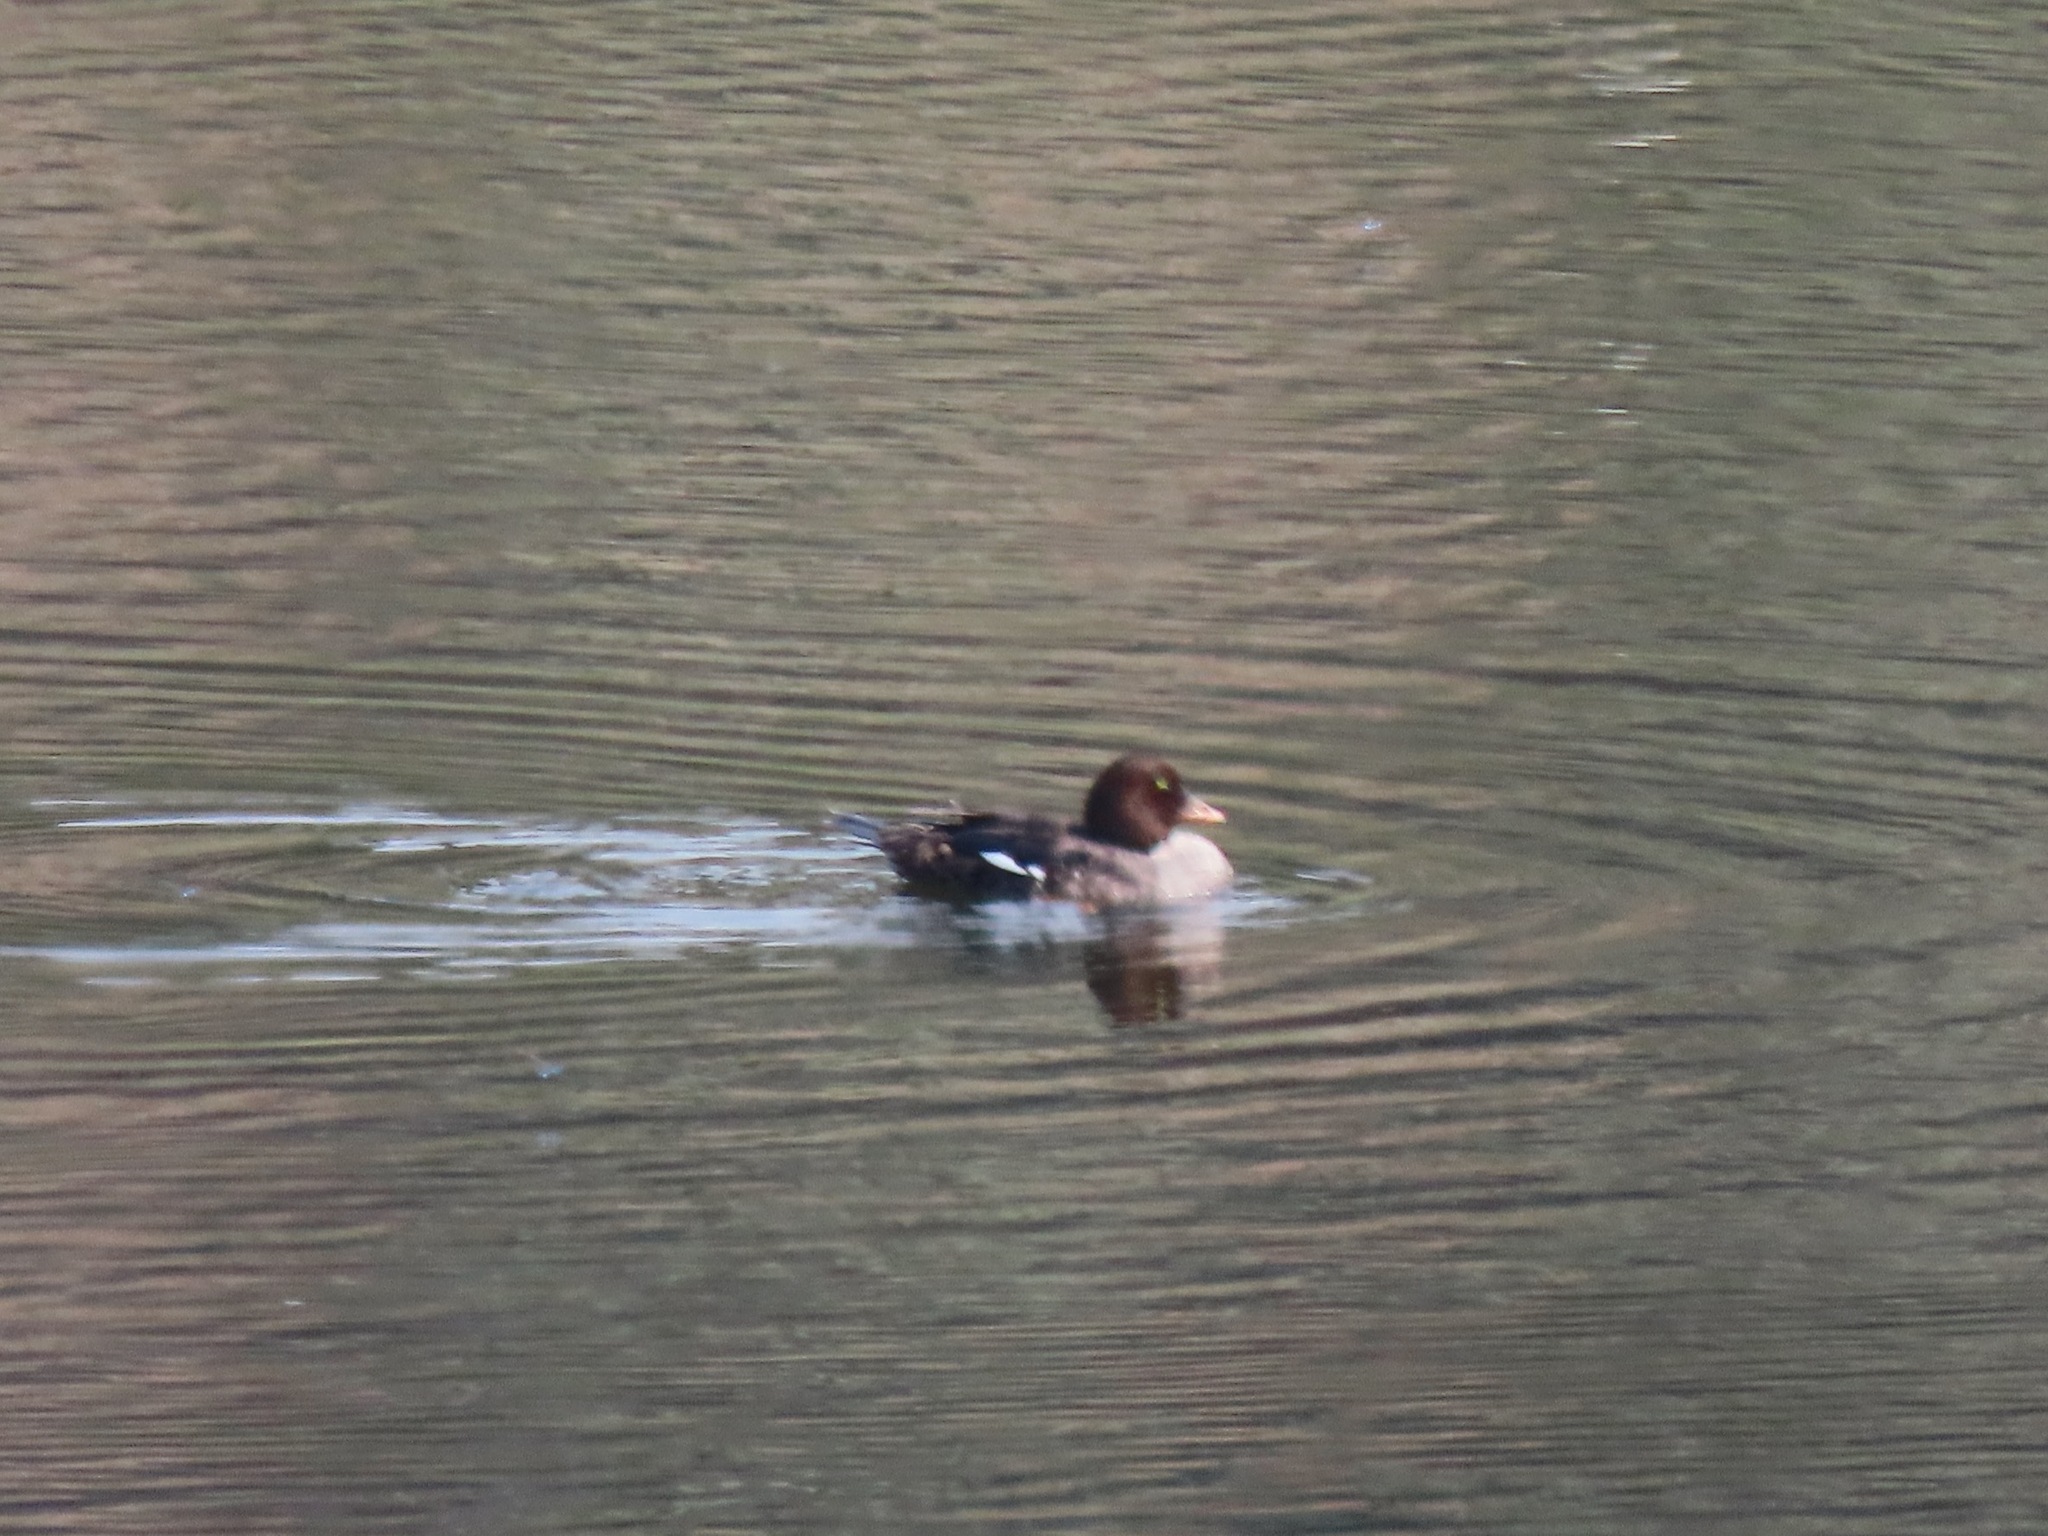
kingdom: Animalia
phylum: Chordata
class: Aves
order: Anseriformes
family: Anatidae
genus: Bucephala
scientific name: Bucephala islandica
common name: Barrow's goldeneye
